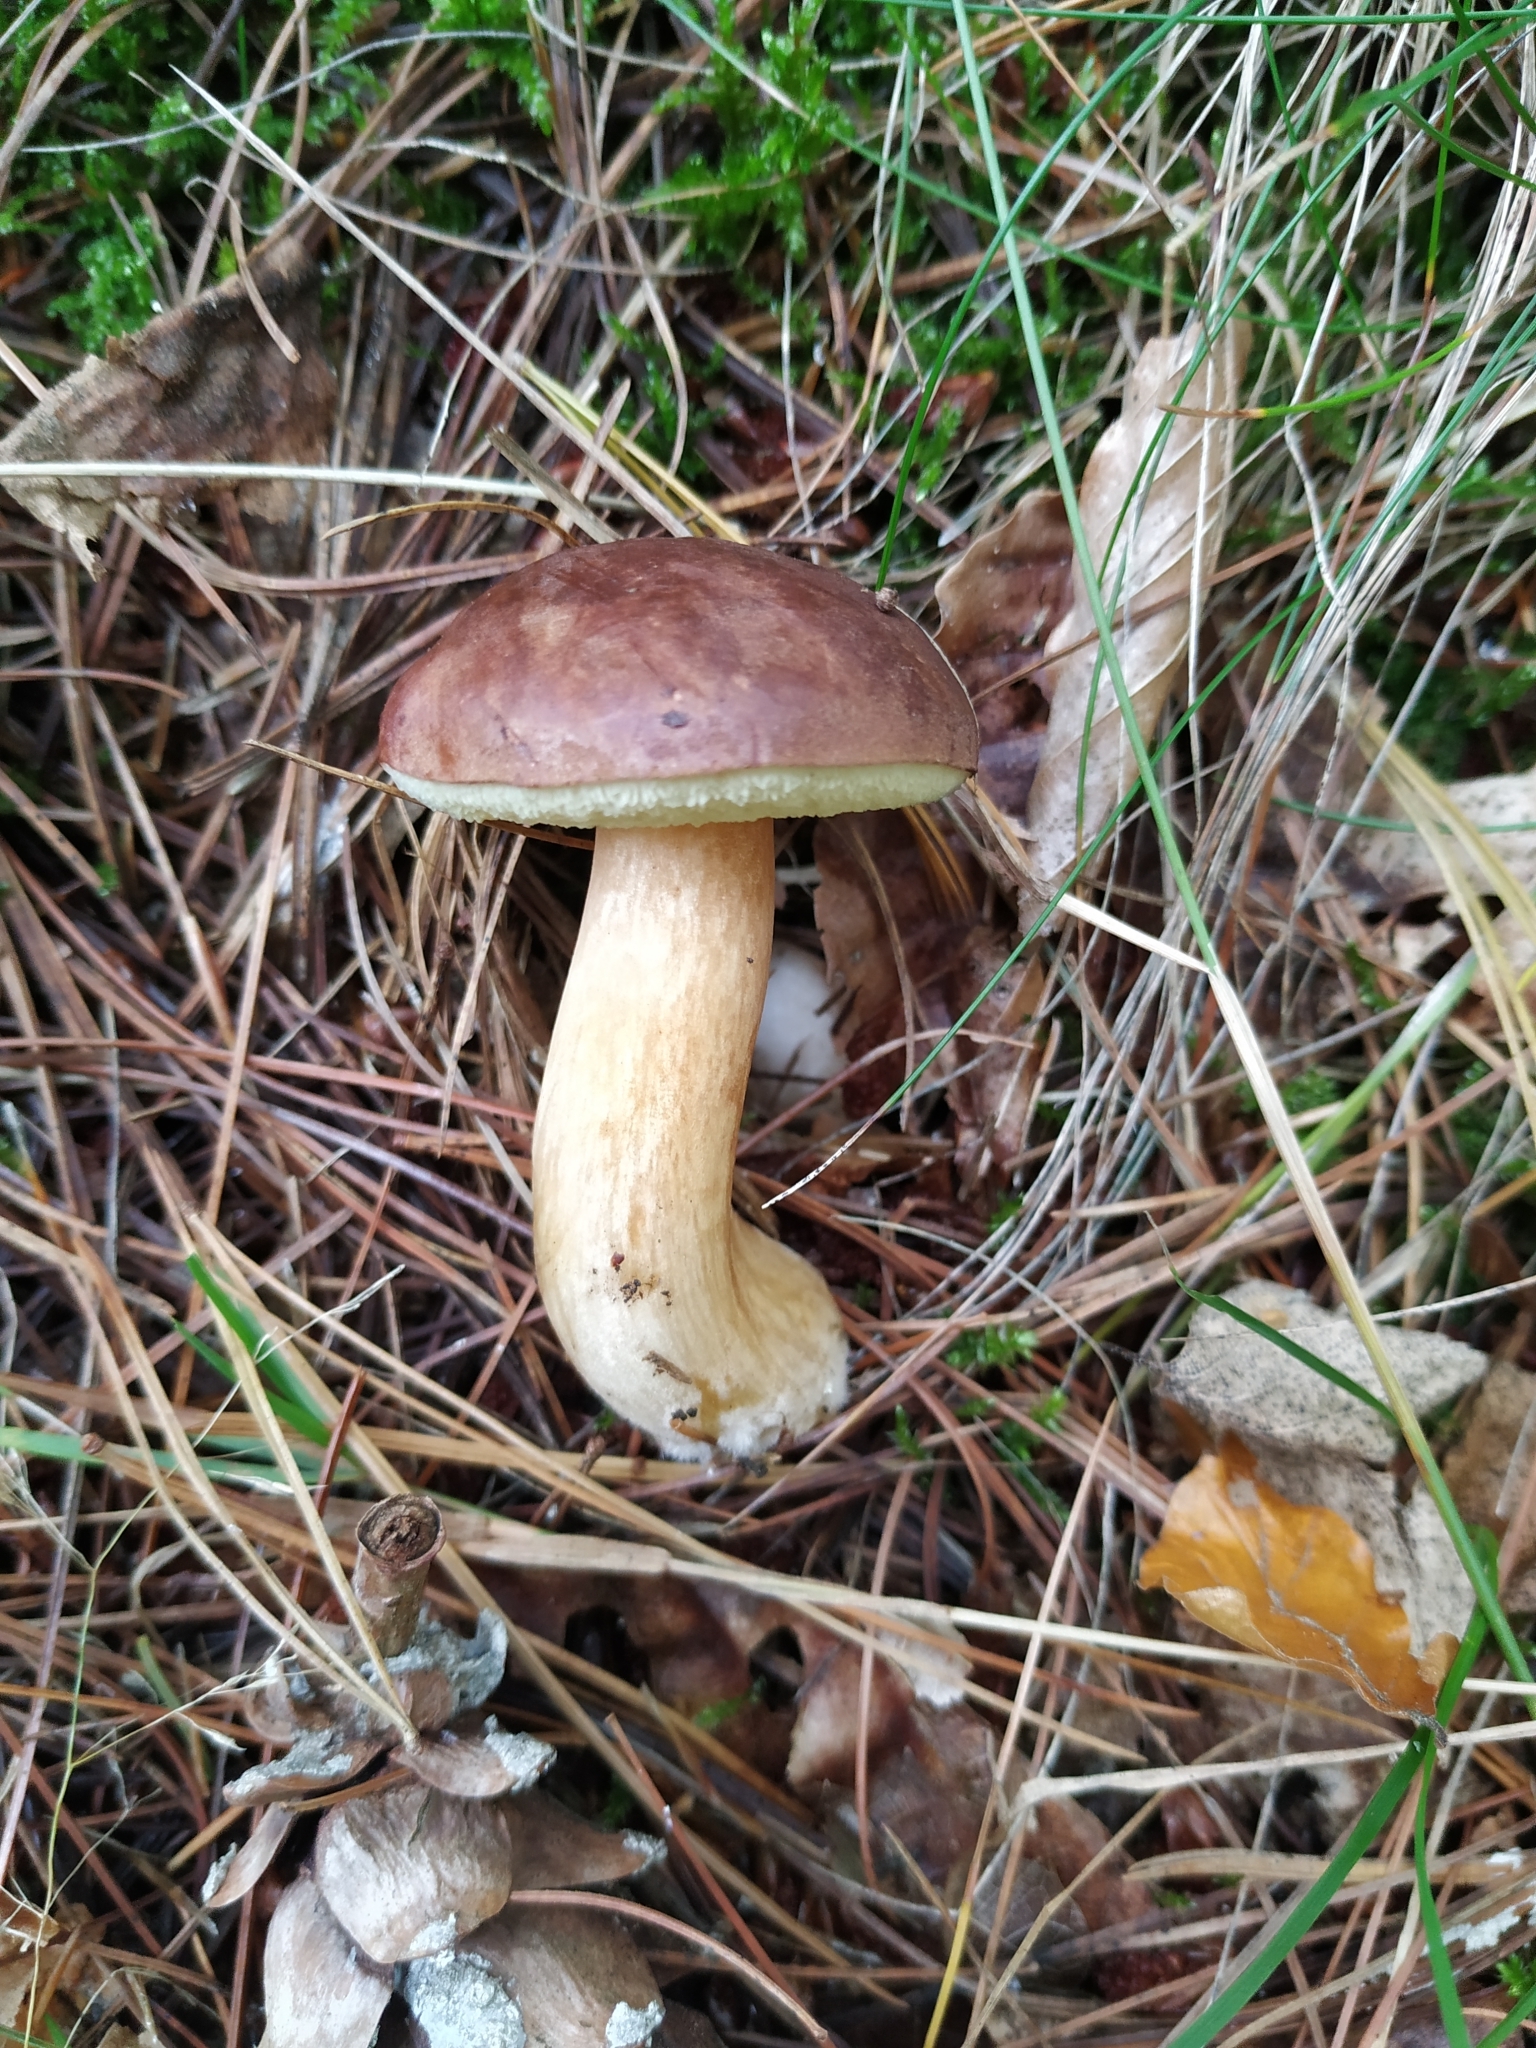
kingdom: Fungi
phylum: Basidiomycota
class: Agaricomycetes
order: Boletales
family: Boletaceae
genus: Imleria
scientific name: Imleria badia
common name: Bay bolete
